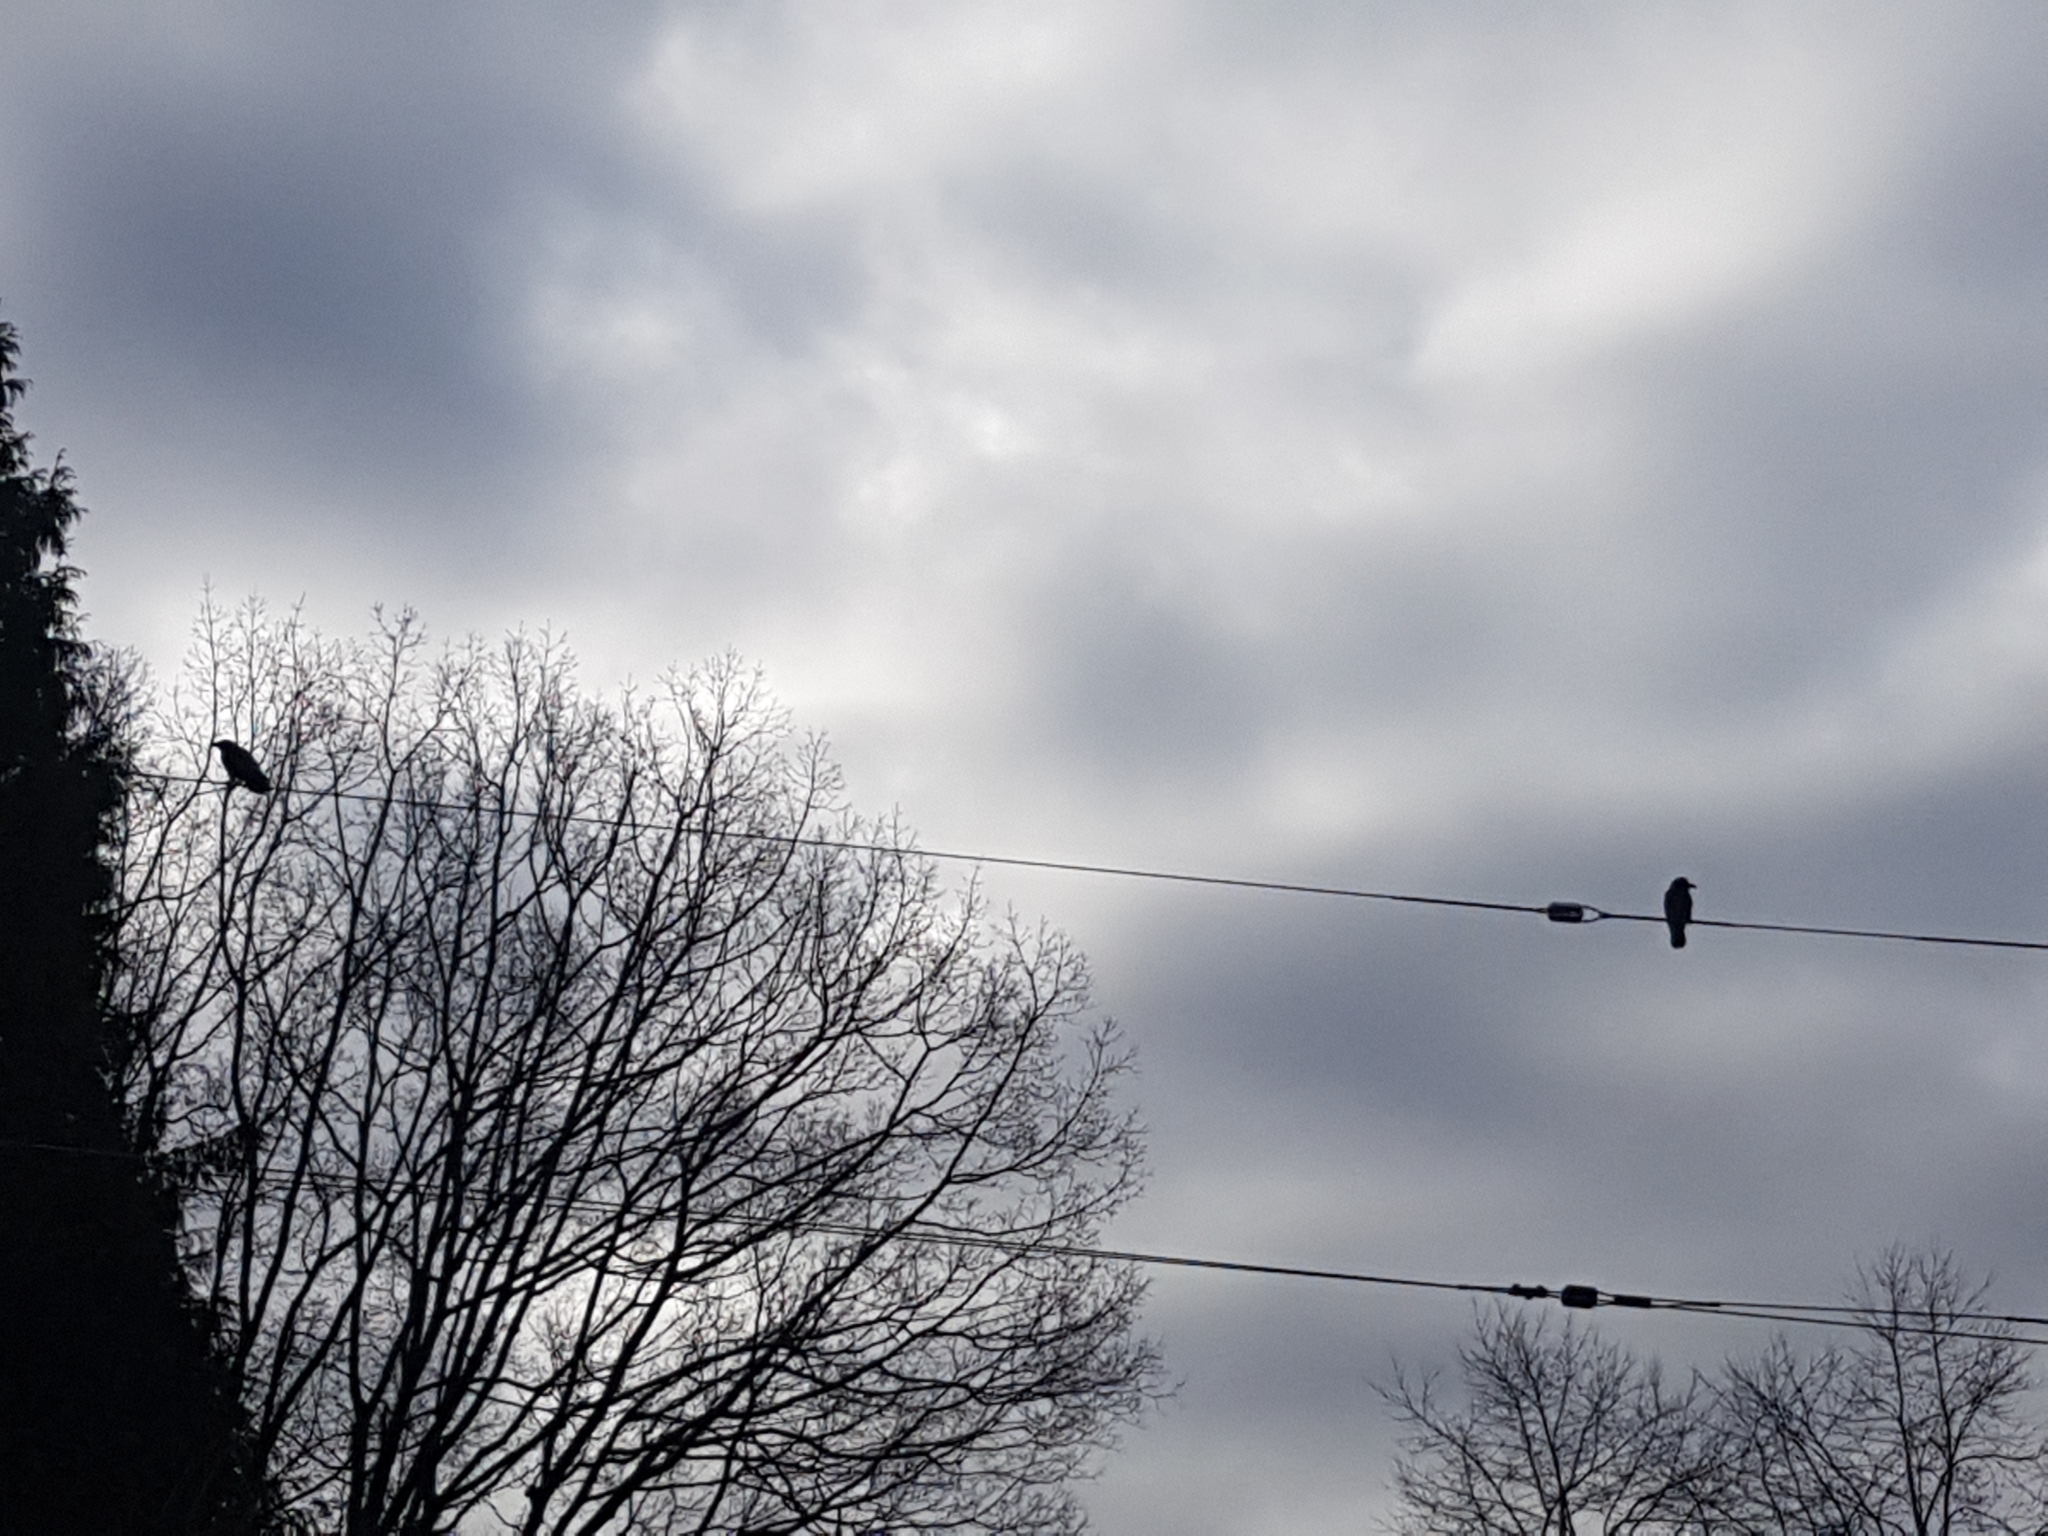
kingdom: Animalia
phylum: Chordata
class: Aves
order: Passeriformes
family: Corvidae
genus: Corvus
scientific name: Corvus brachyrhynchos
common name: American crow
